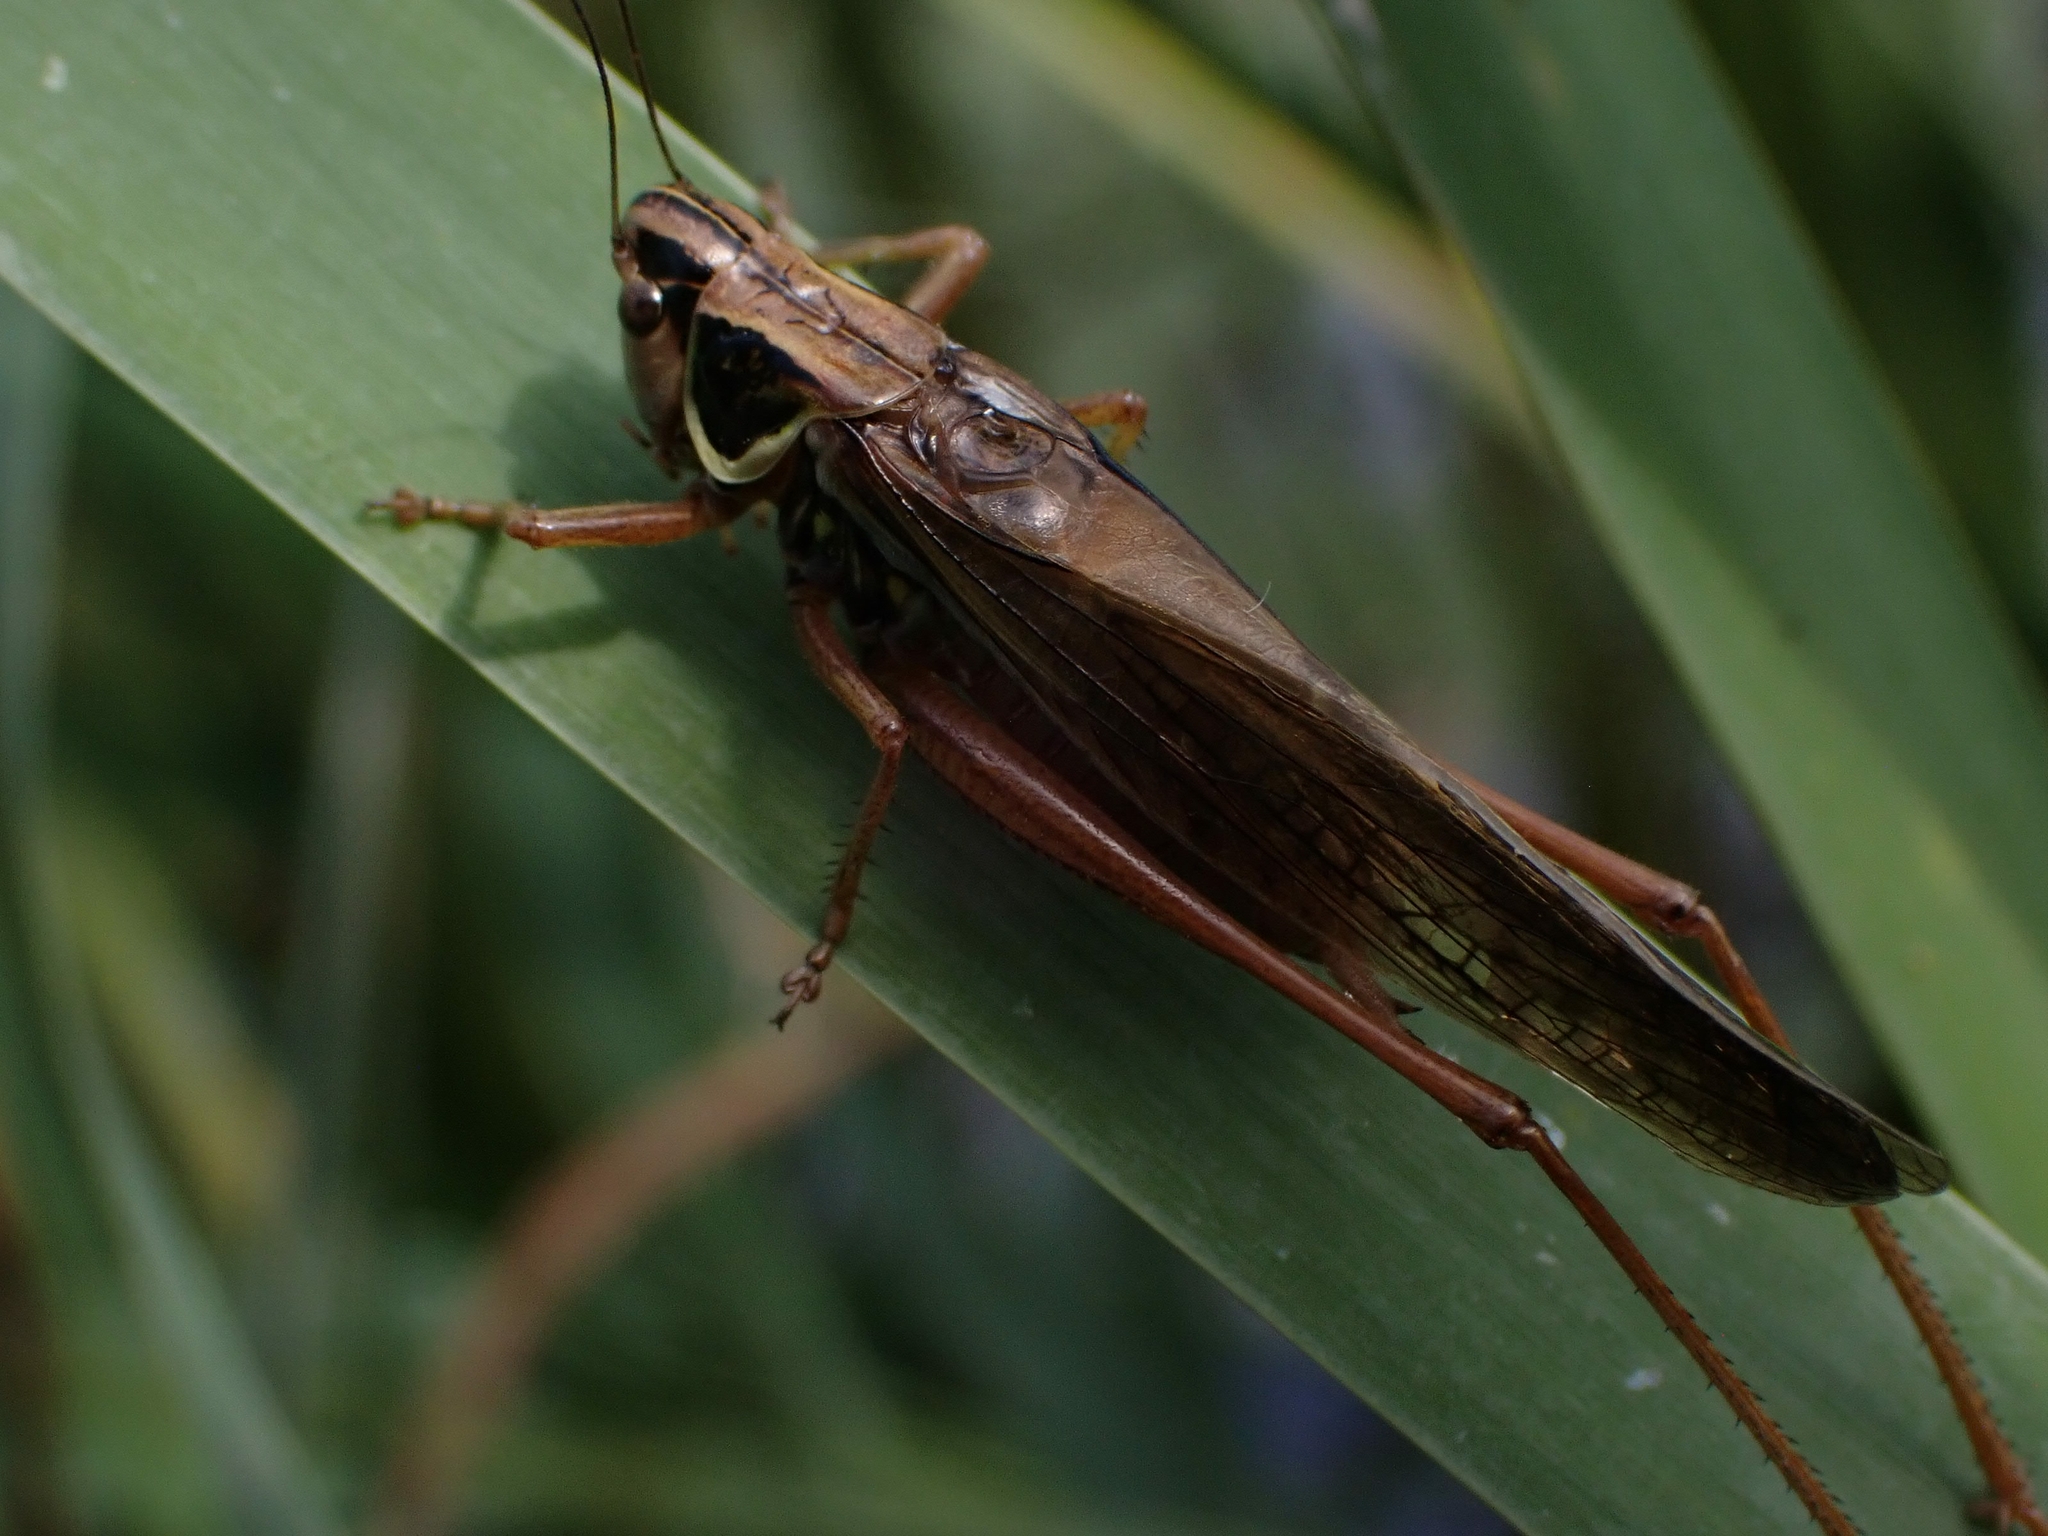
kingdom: Animalia
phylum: Arthropoda
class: Insecta
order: Orthoptera
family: Tettigoniidae
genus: Roeseliana
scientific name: Roeseliana roeselii
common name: Roesel's bush cricket
